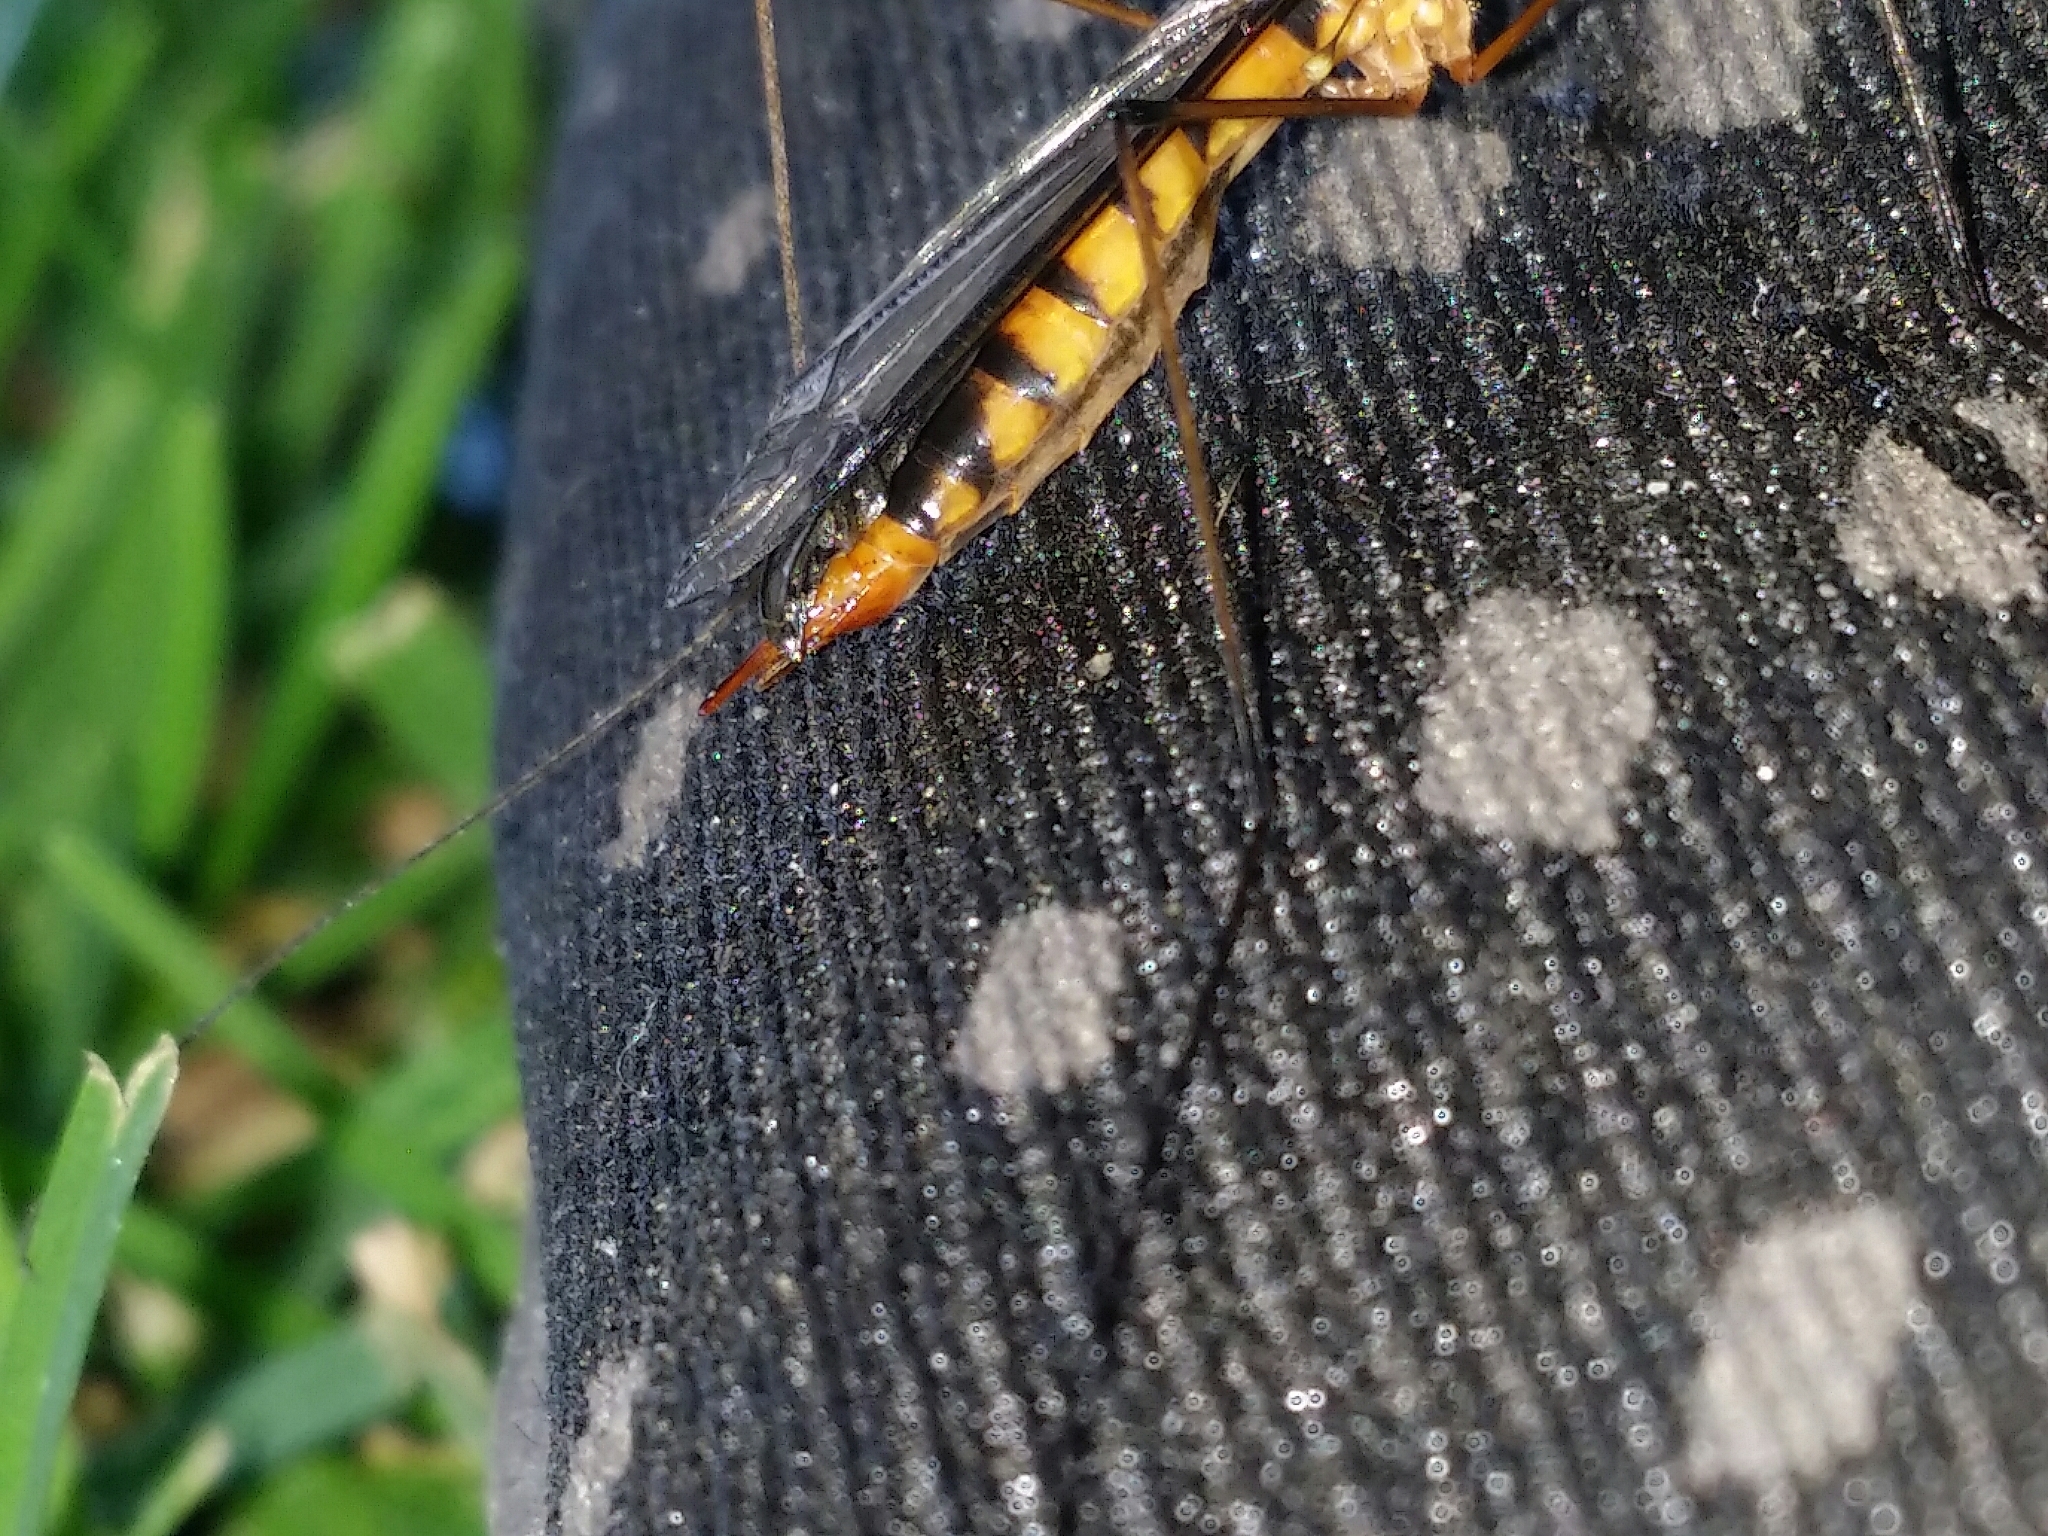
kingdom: Animalia
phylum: Arthropoda
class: Insecta
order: Diptera
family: Tipulidae
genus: Nephrotoma
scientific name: Nephrotoma australasiae
